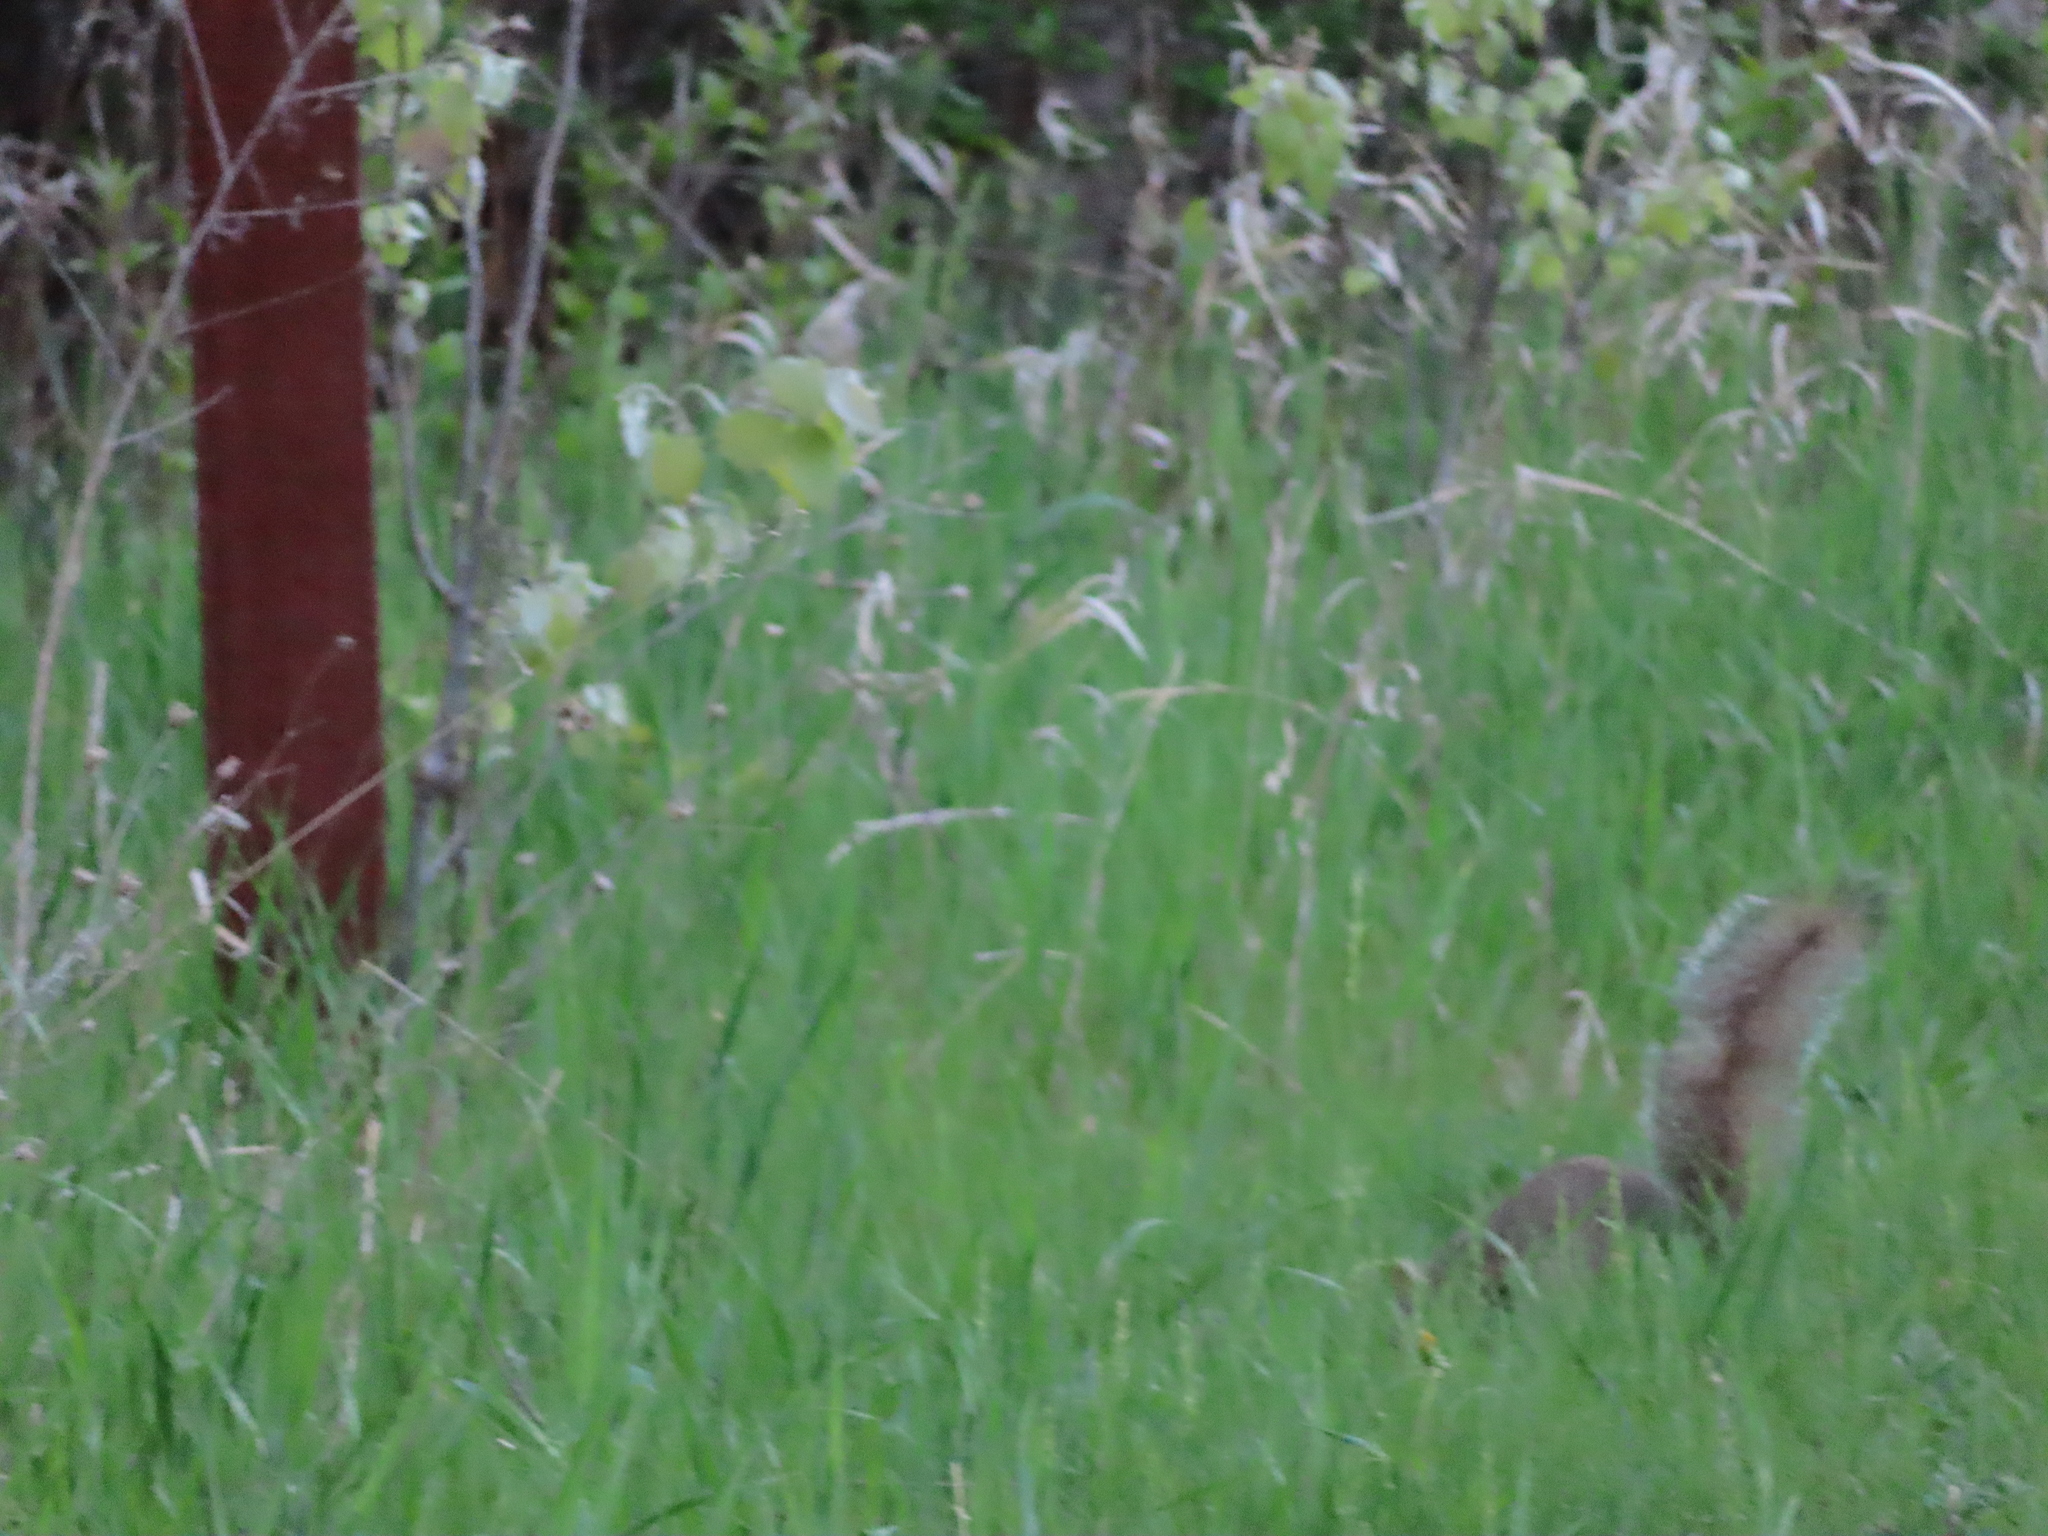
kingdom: Animalia
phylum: Chordata
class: Mammalia
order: Rodentia
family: Sciuridae
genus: Sciurus
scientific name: Sciurus carolinensis
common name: Eastern gray squirrel
